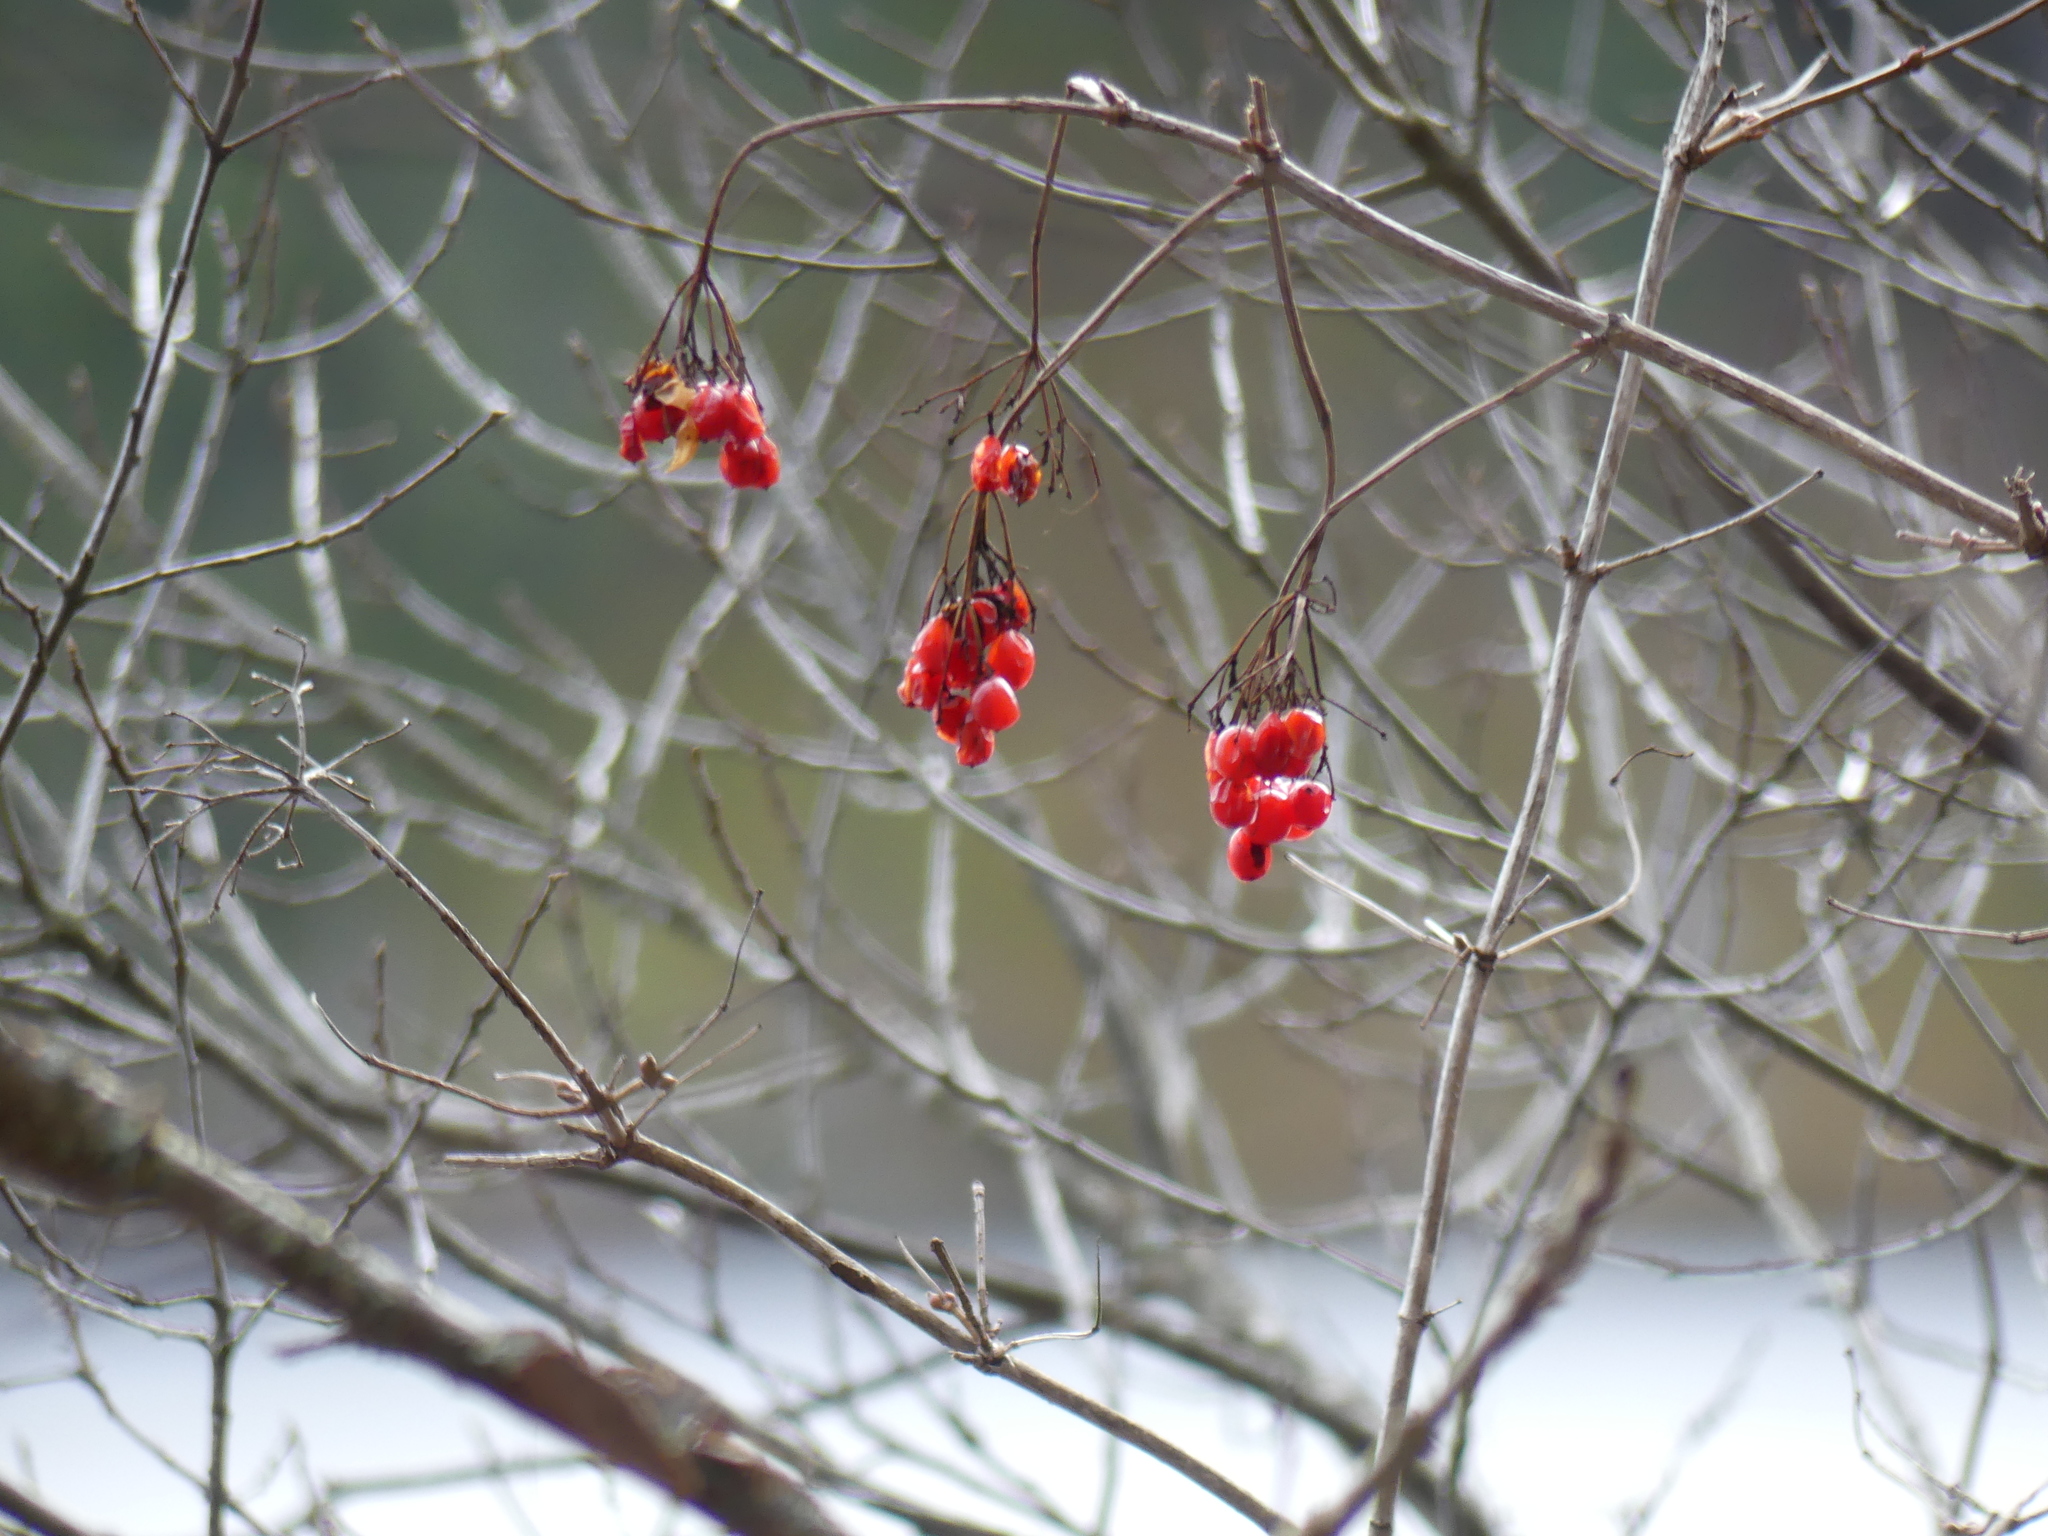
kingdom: Plantae
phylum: Tracheophyta
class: Magnoliopsida
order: Dipsacales
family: Viburnaceae
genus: Viburnum
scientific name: Viburnum opulus
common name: Guelder-rose
